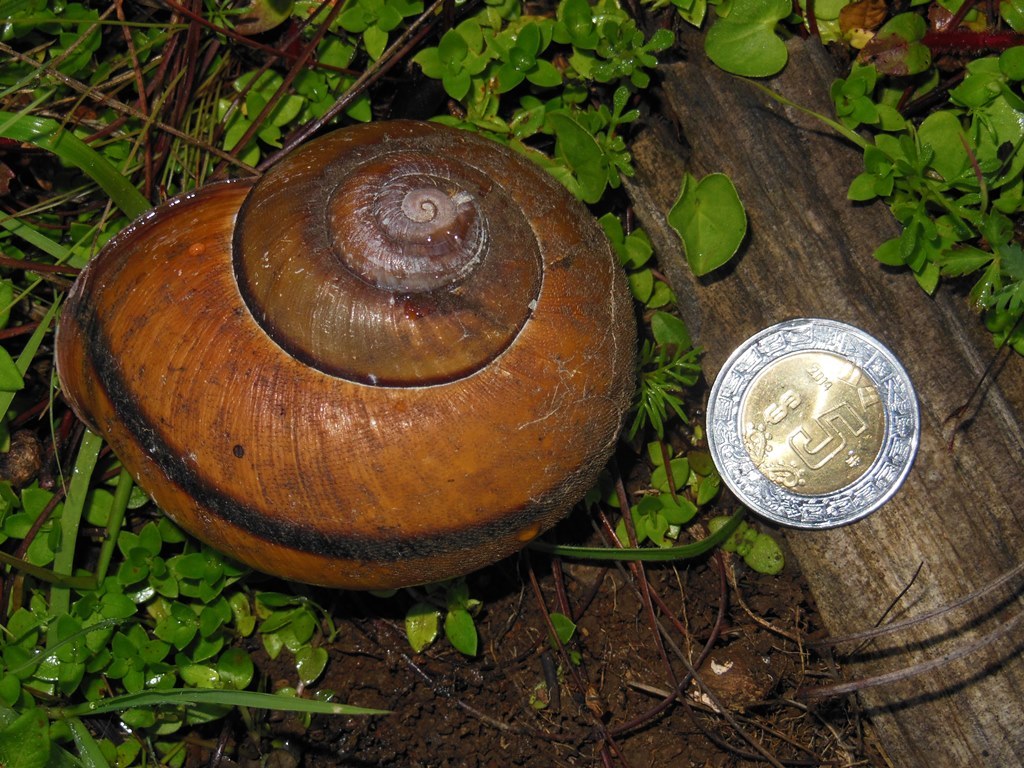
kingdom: Animalia
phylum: Mollusca
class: Gastropoda
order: Stylommatophora
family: Xanthonychidae
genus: Lysinoe
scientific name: Lysinoe ghiesbreghti
